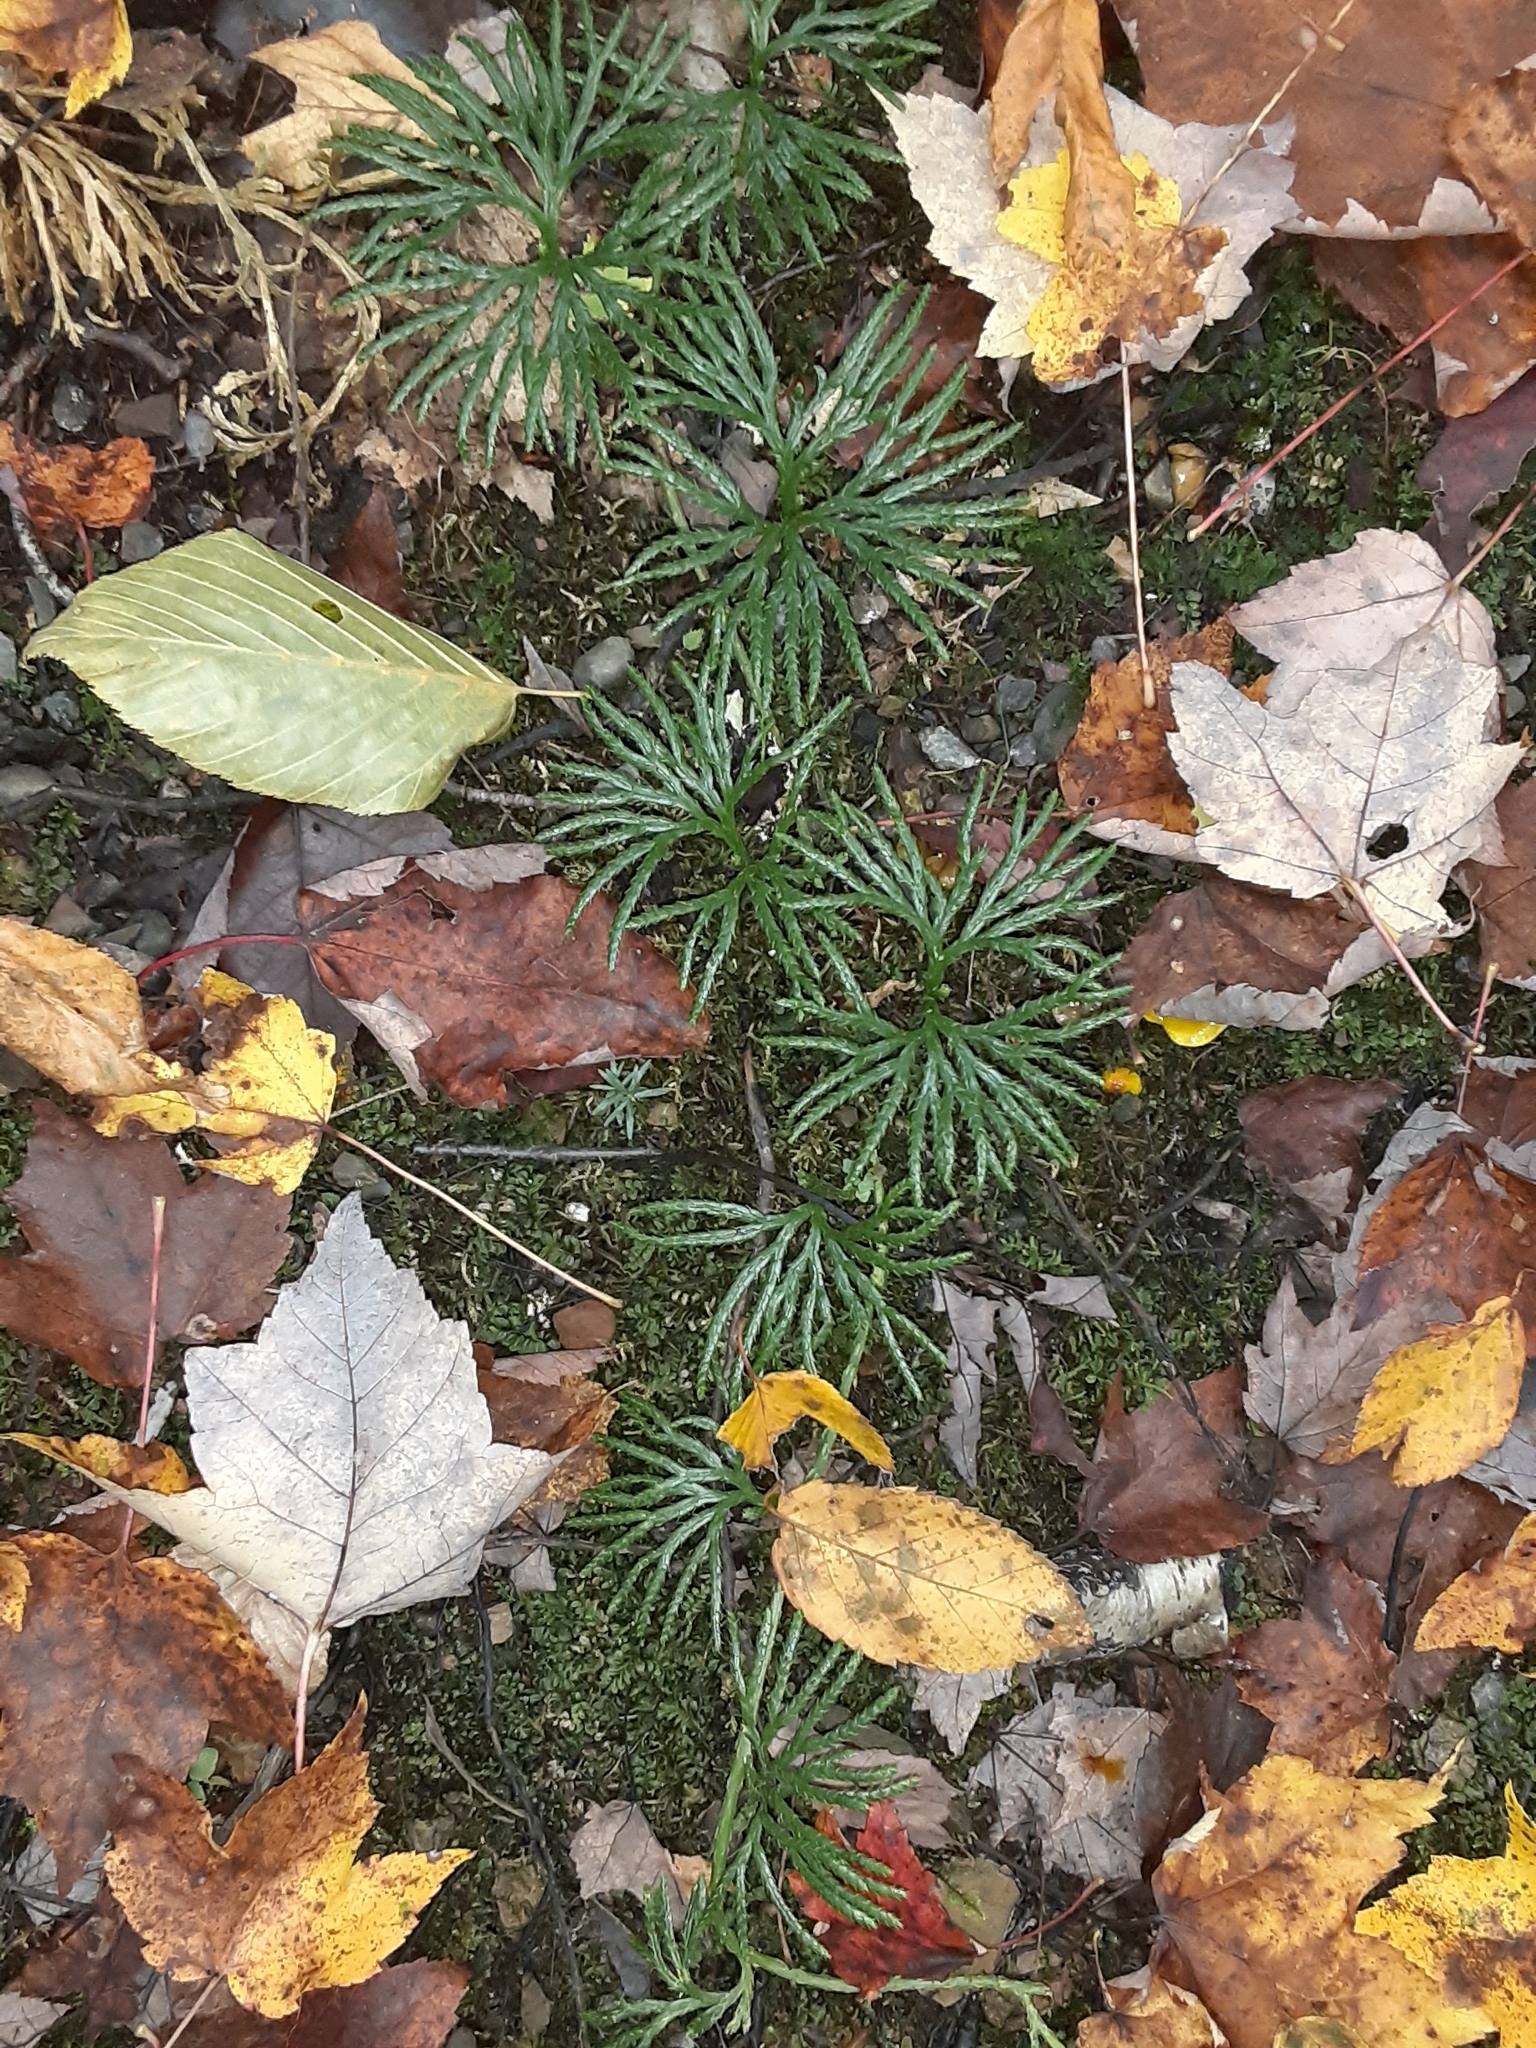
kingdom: Plantae
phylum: Tracheophyta
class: Lycopodiopsida
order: Lycopodiales
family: Lycopodiaceae
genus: Diphasiastrum
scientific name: Diphasiastrum digitatum
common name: Southern running-pine
